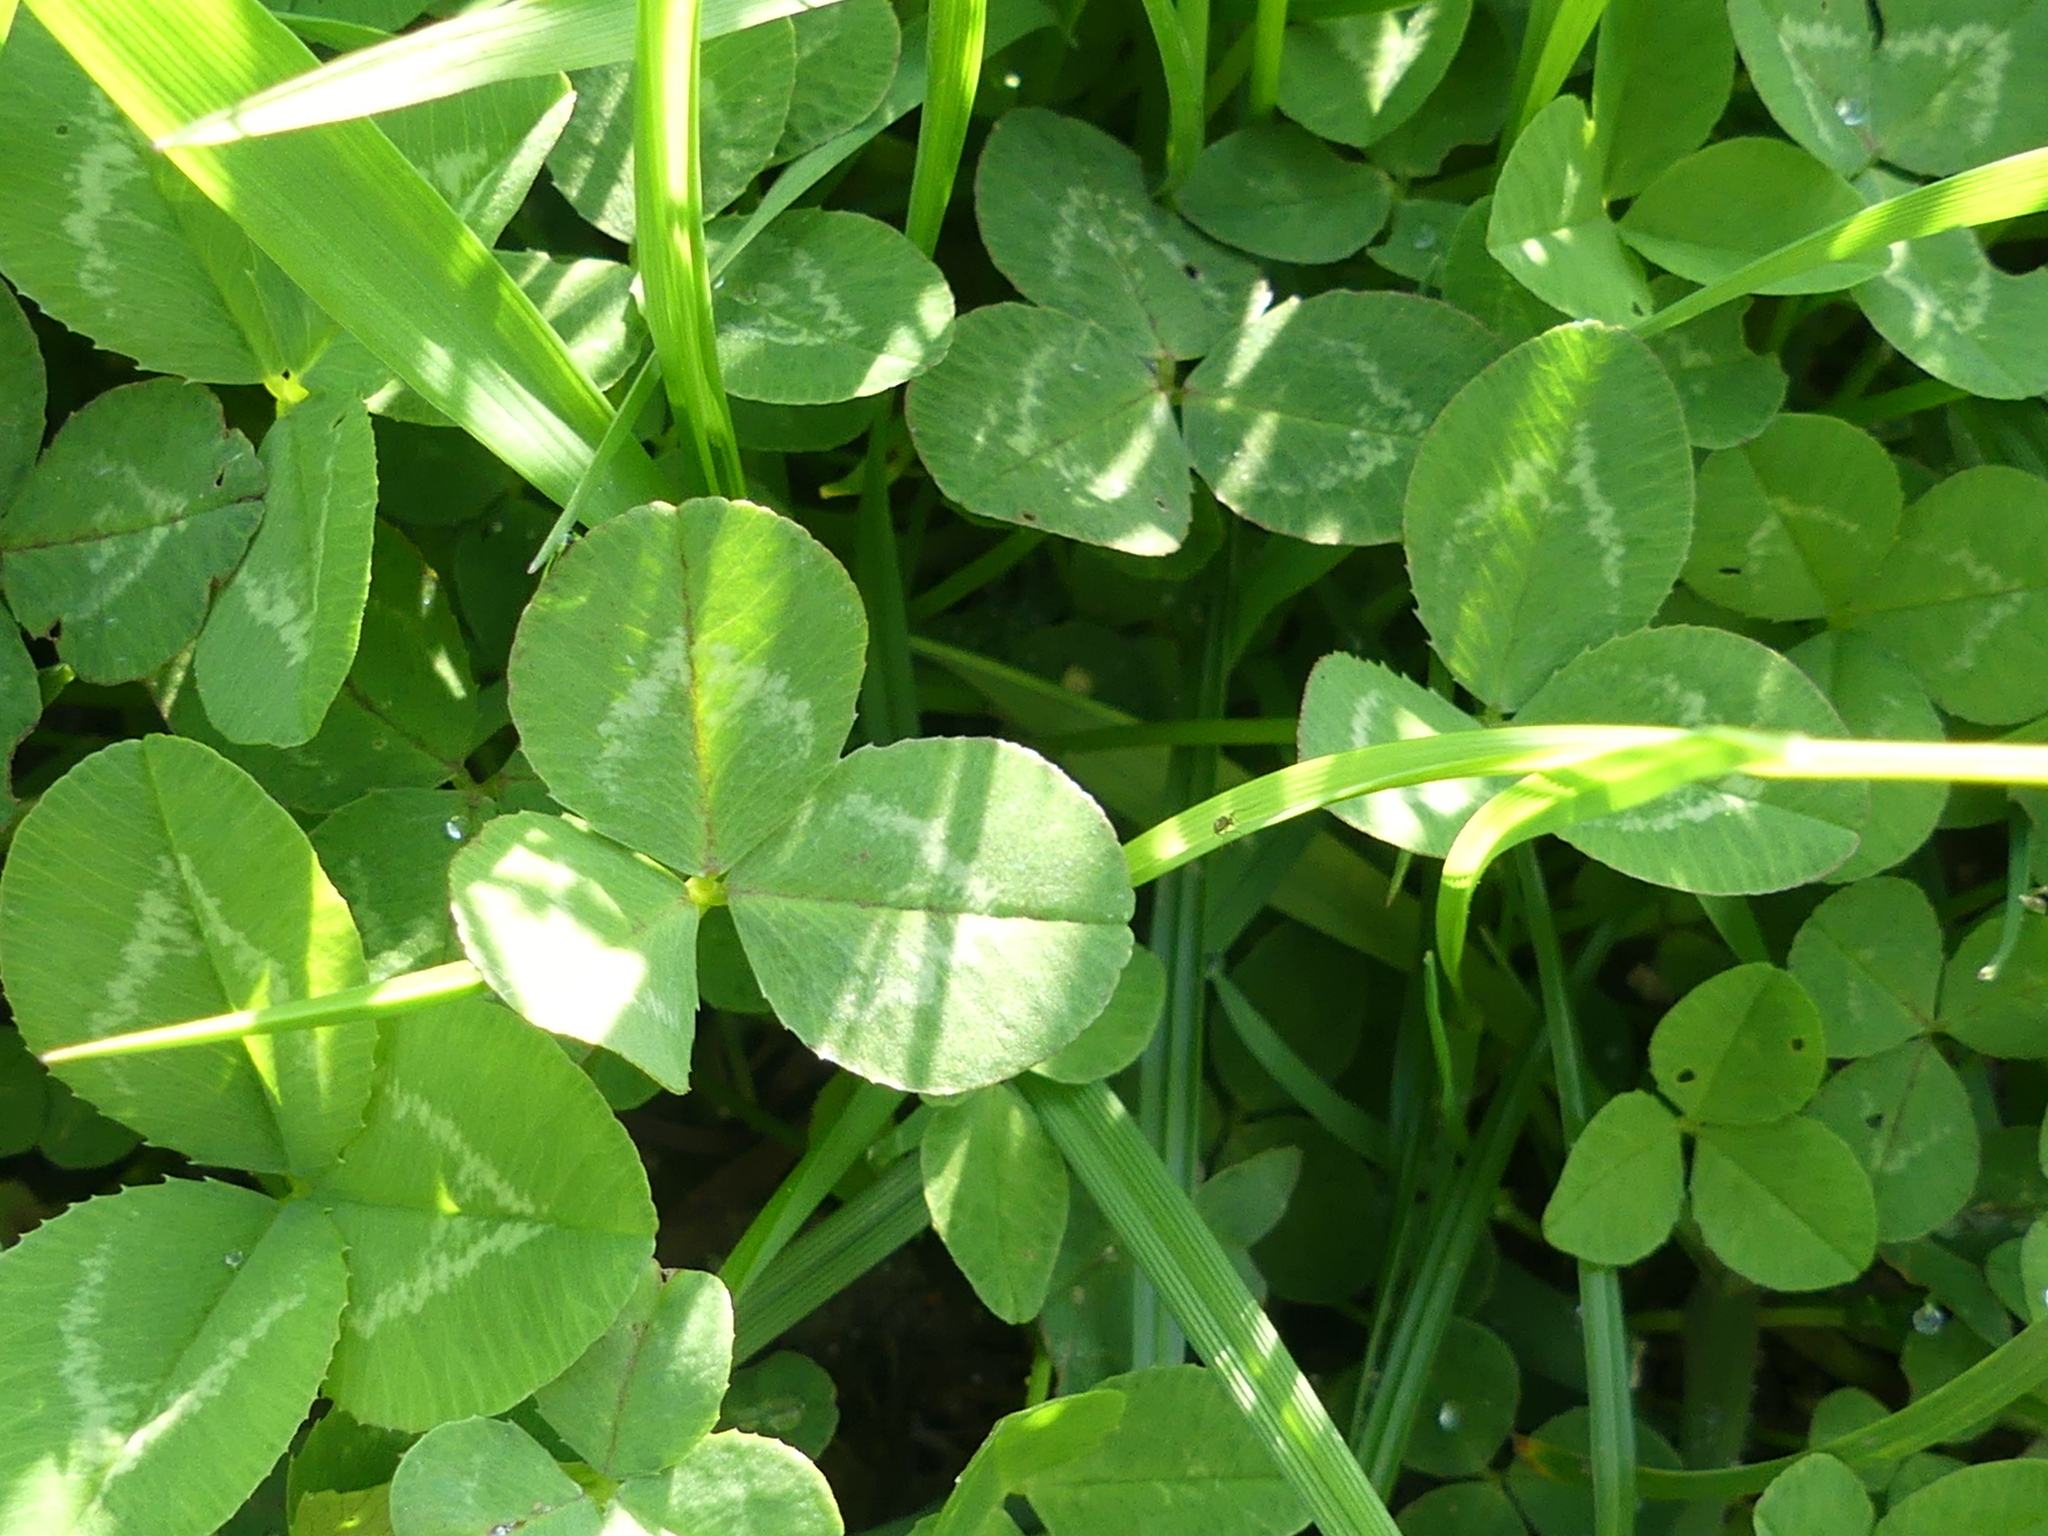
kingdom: Plantae
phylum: Tracheophyta
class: Magnoliopsida
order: Fabales
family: Fabaceae
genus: Trifolium
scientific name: Trifolium repens
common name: White clover
